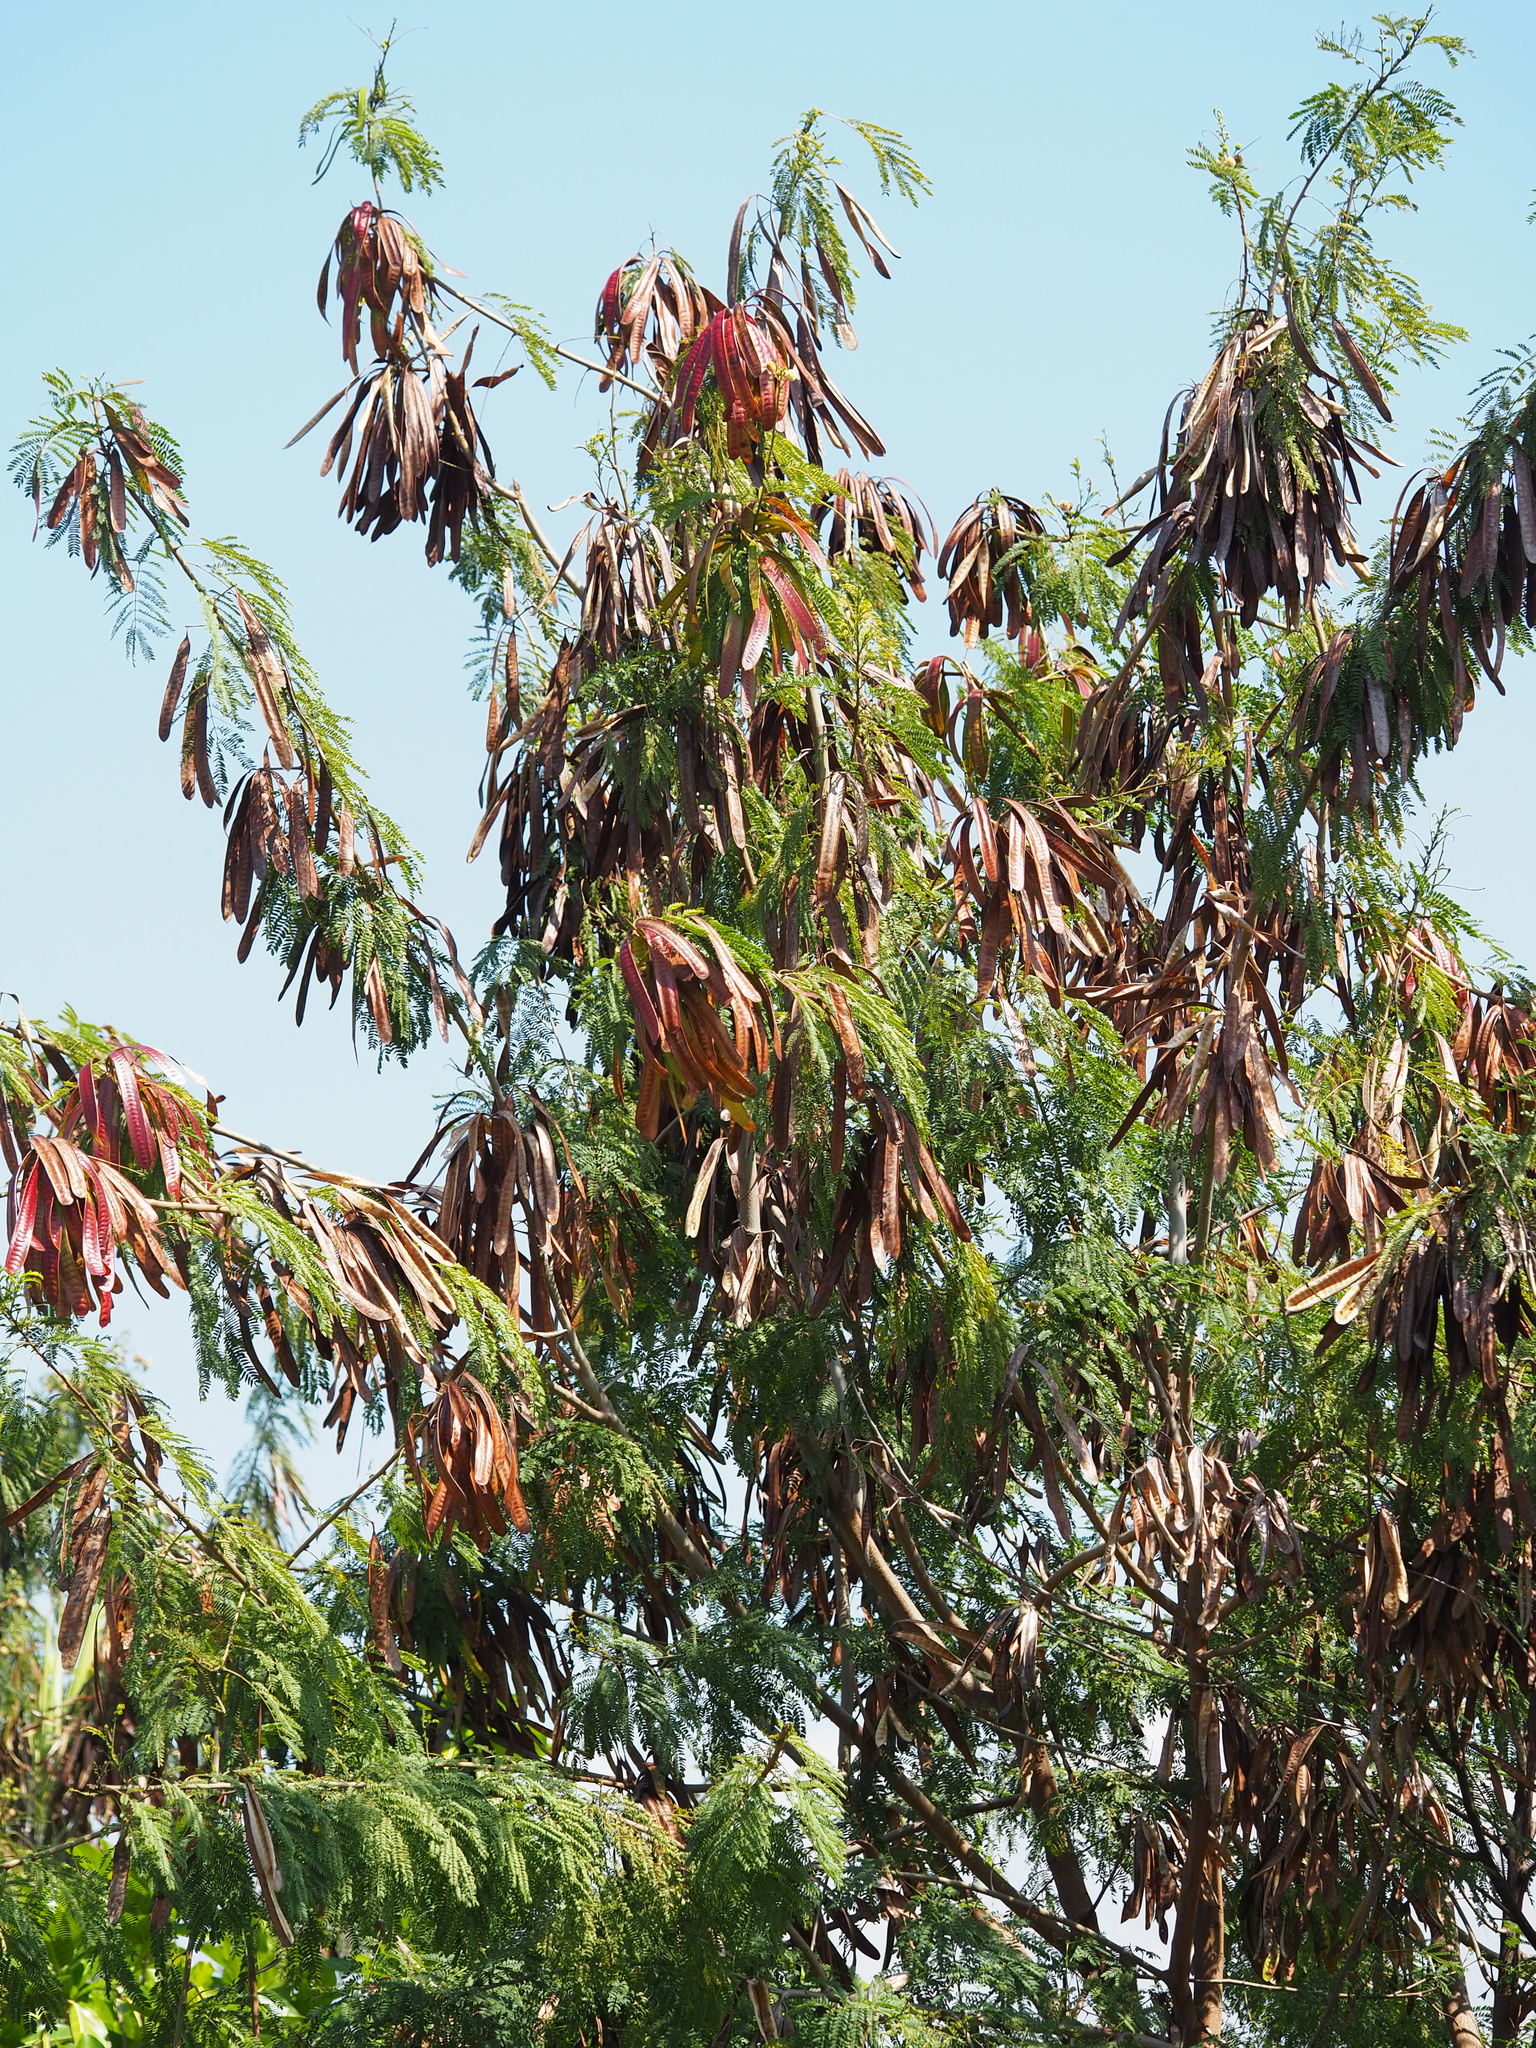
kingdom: Plantae
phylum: Tracheophyta
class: Magnoliopsida
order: Fabales
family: Fabaceae
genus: Leucaena
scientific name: Leucaena leucocephala
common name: White leadtree
